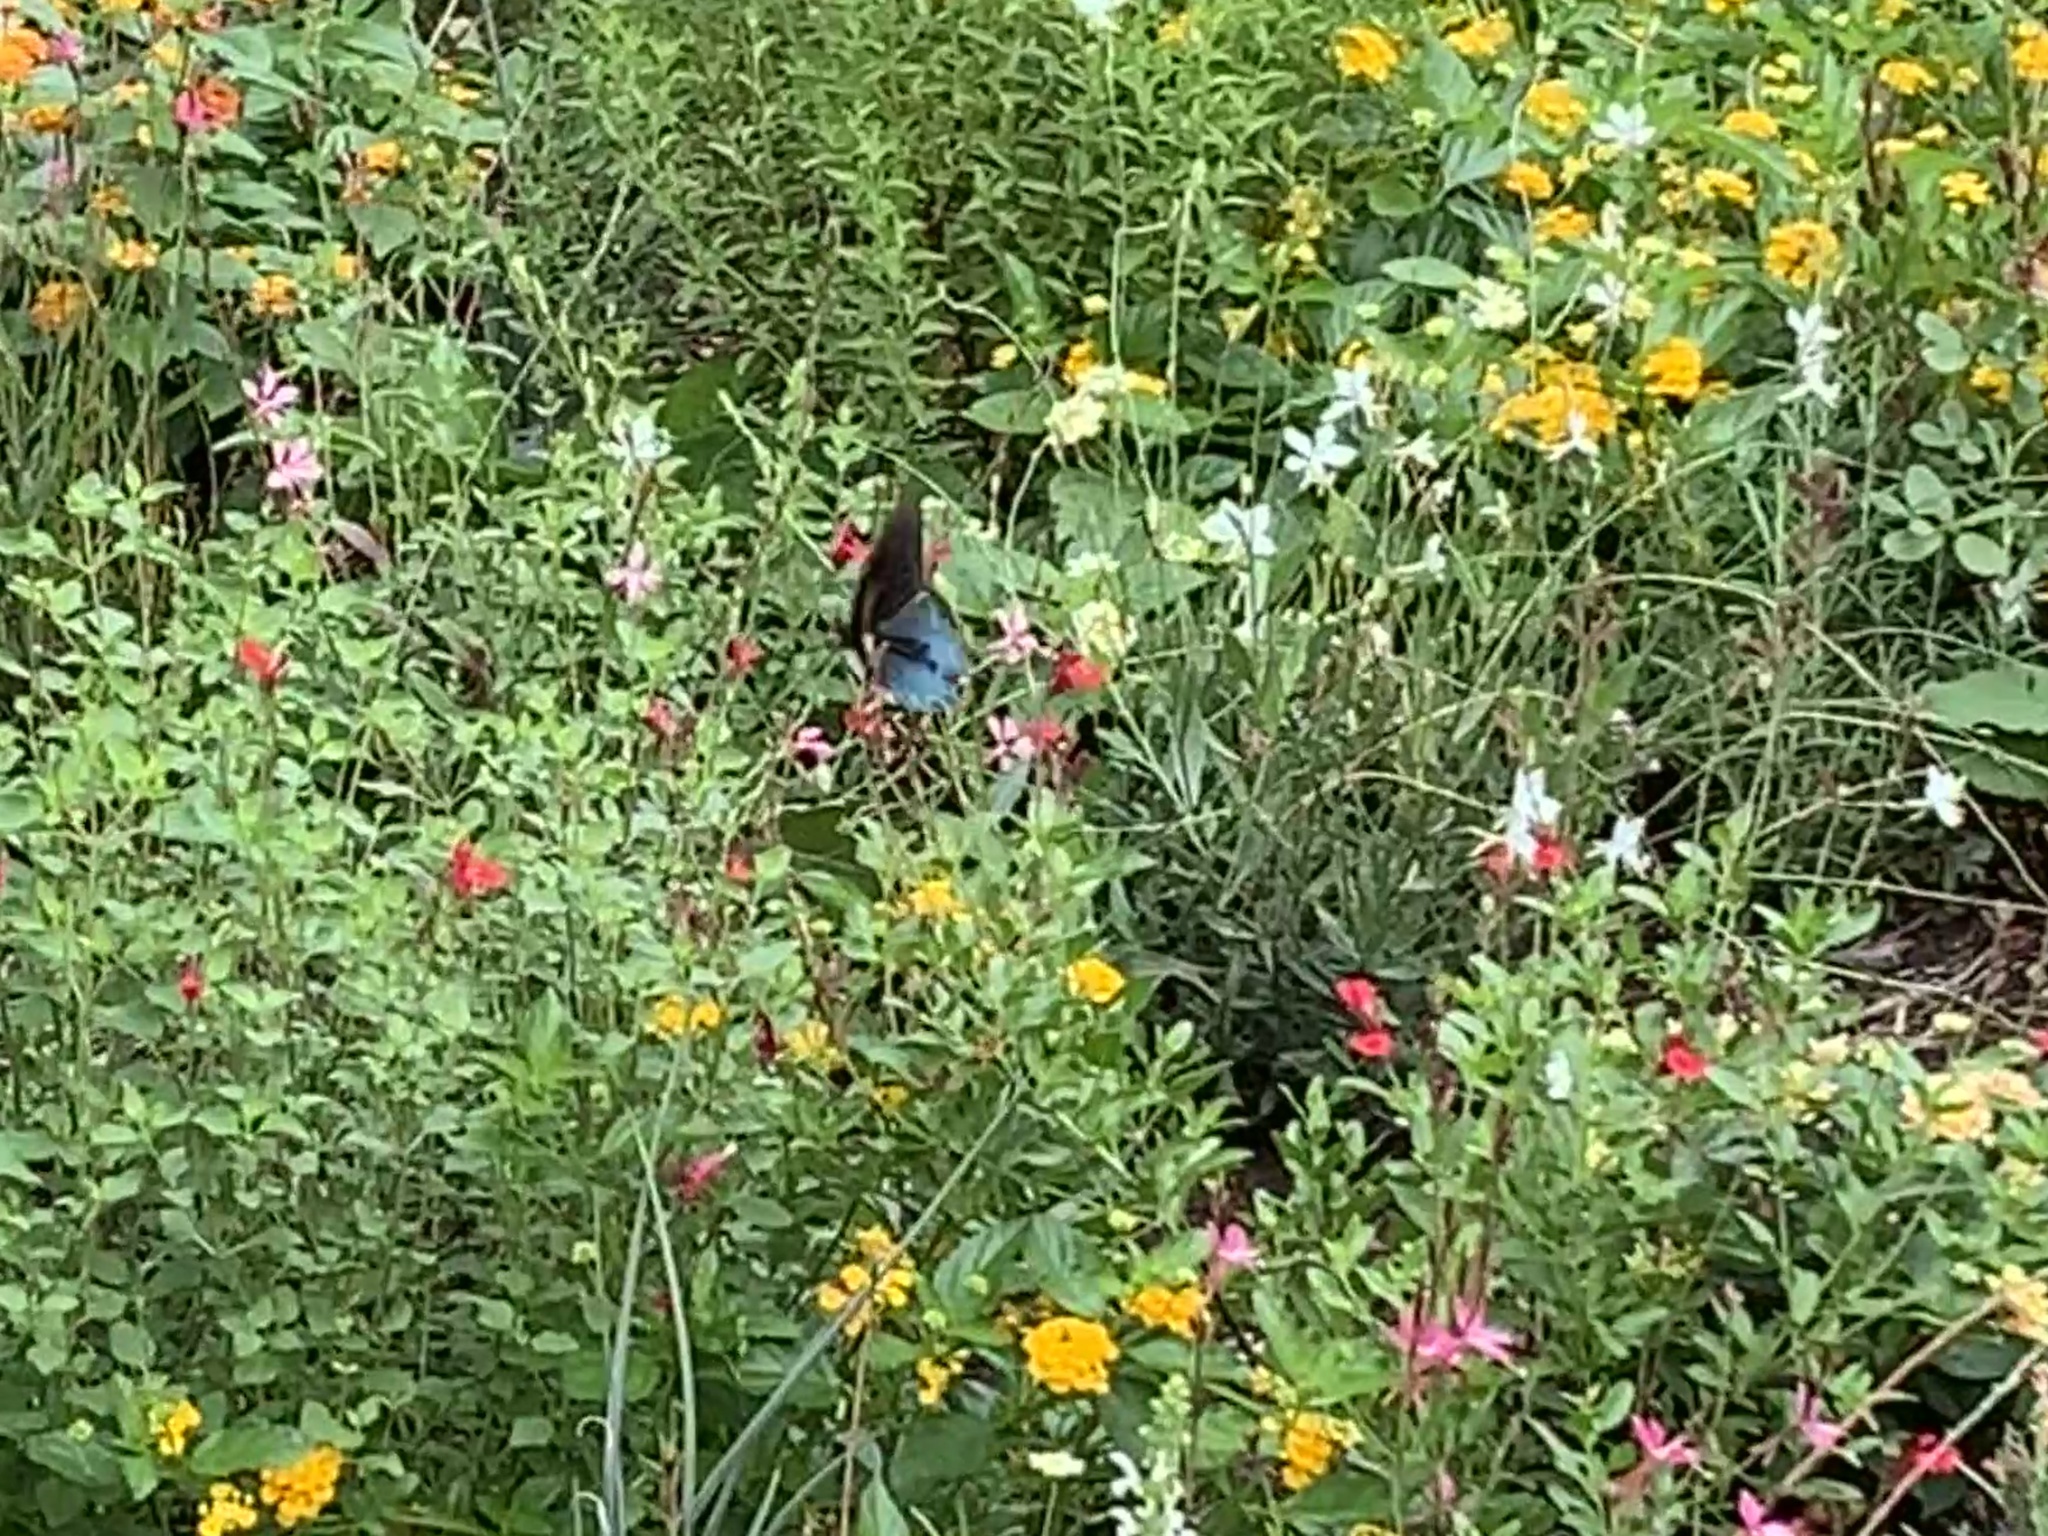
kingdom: Animalia
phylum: Arthropoda
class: Insecta
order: Lepidoptera
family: Papilionidae
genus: Battus
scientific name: Battus philenor
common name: Pipevine swallowtail
